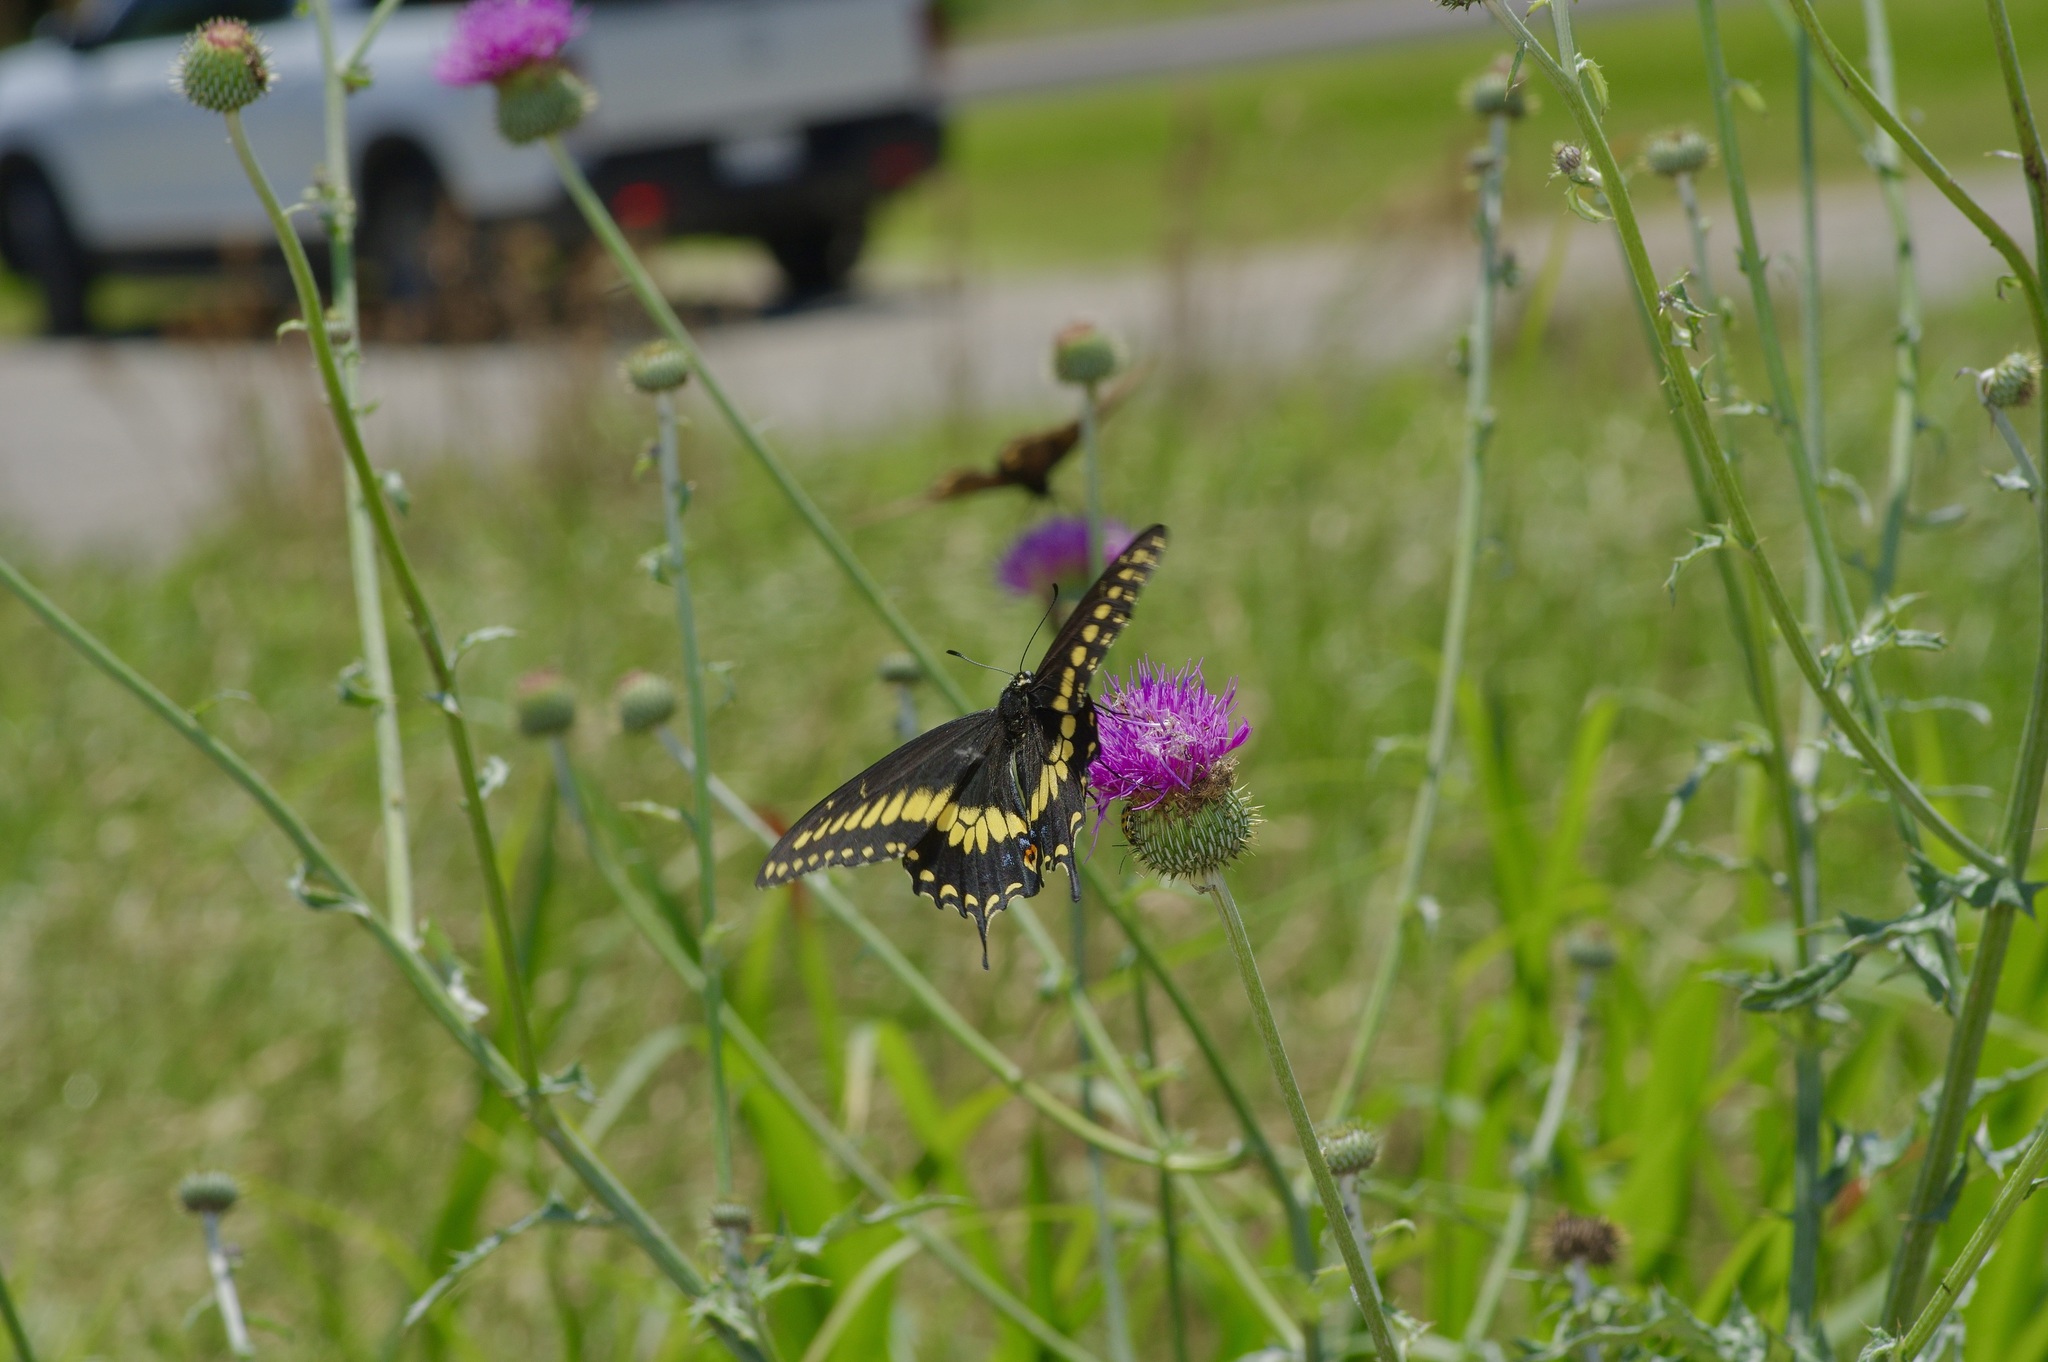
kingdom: Animalia
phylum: Arthropoda
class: Insecta
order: Lepidoptera
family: Papilionidae
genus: Papilio
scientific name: Papilio polyxenes
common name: Black swallowtail
